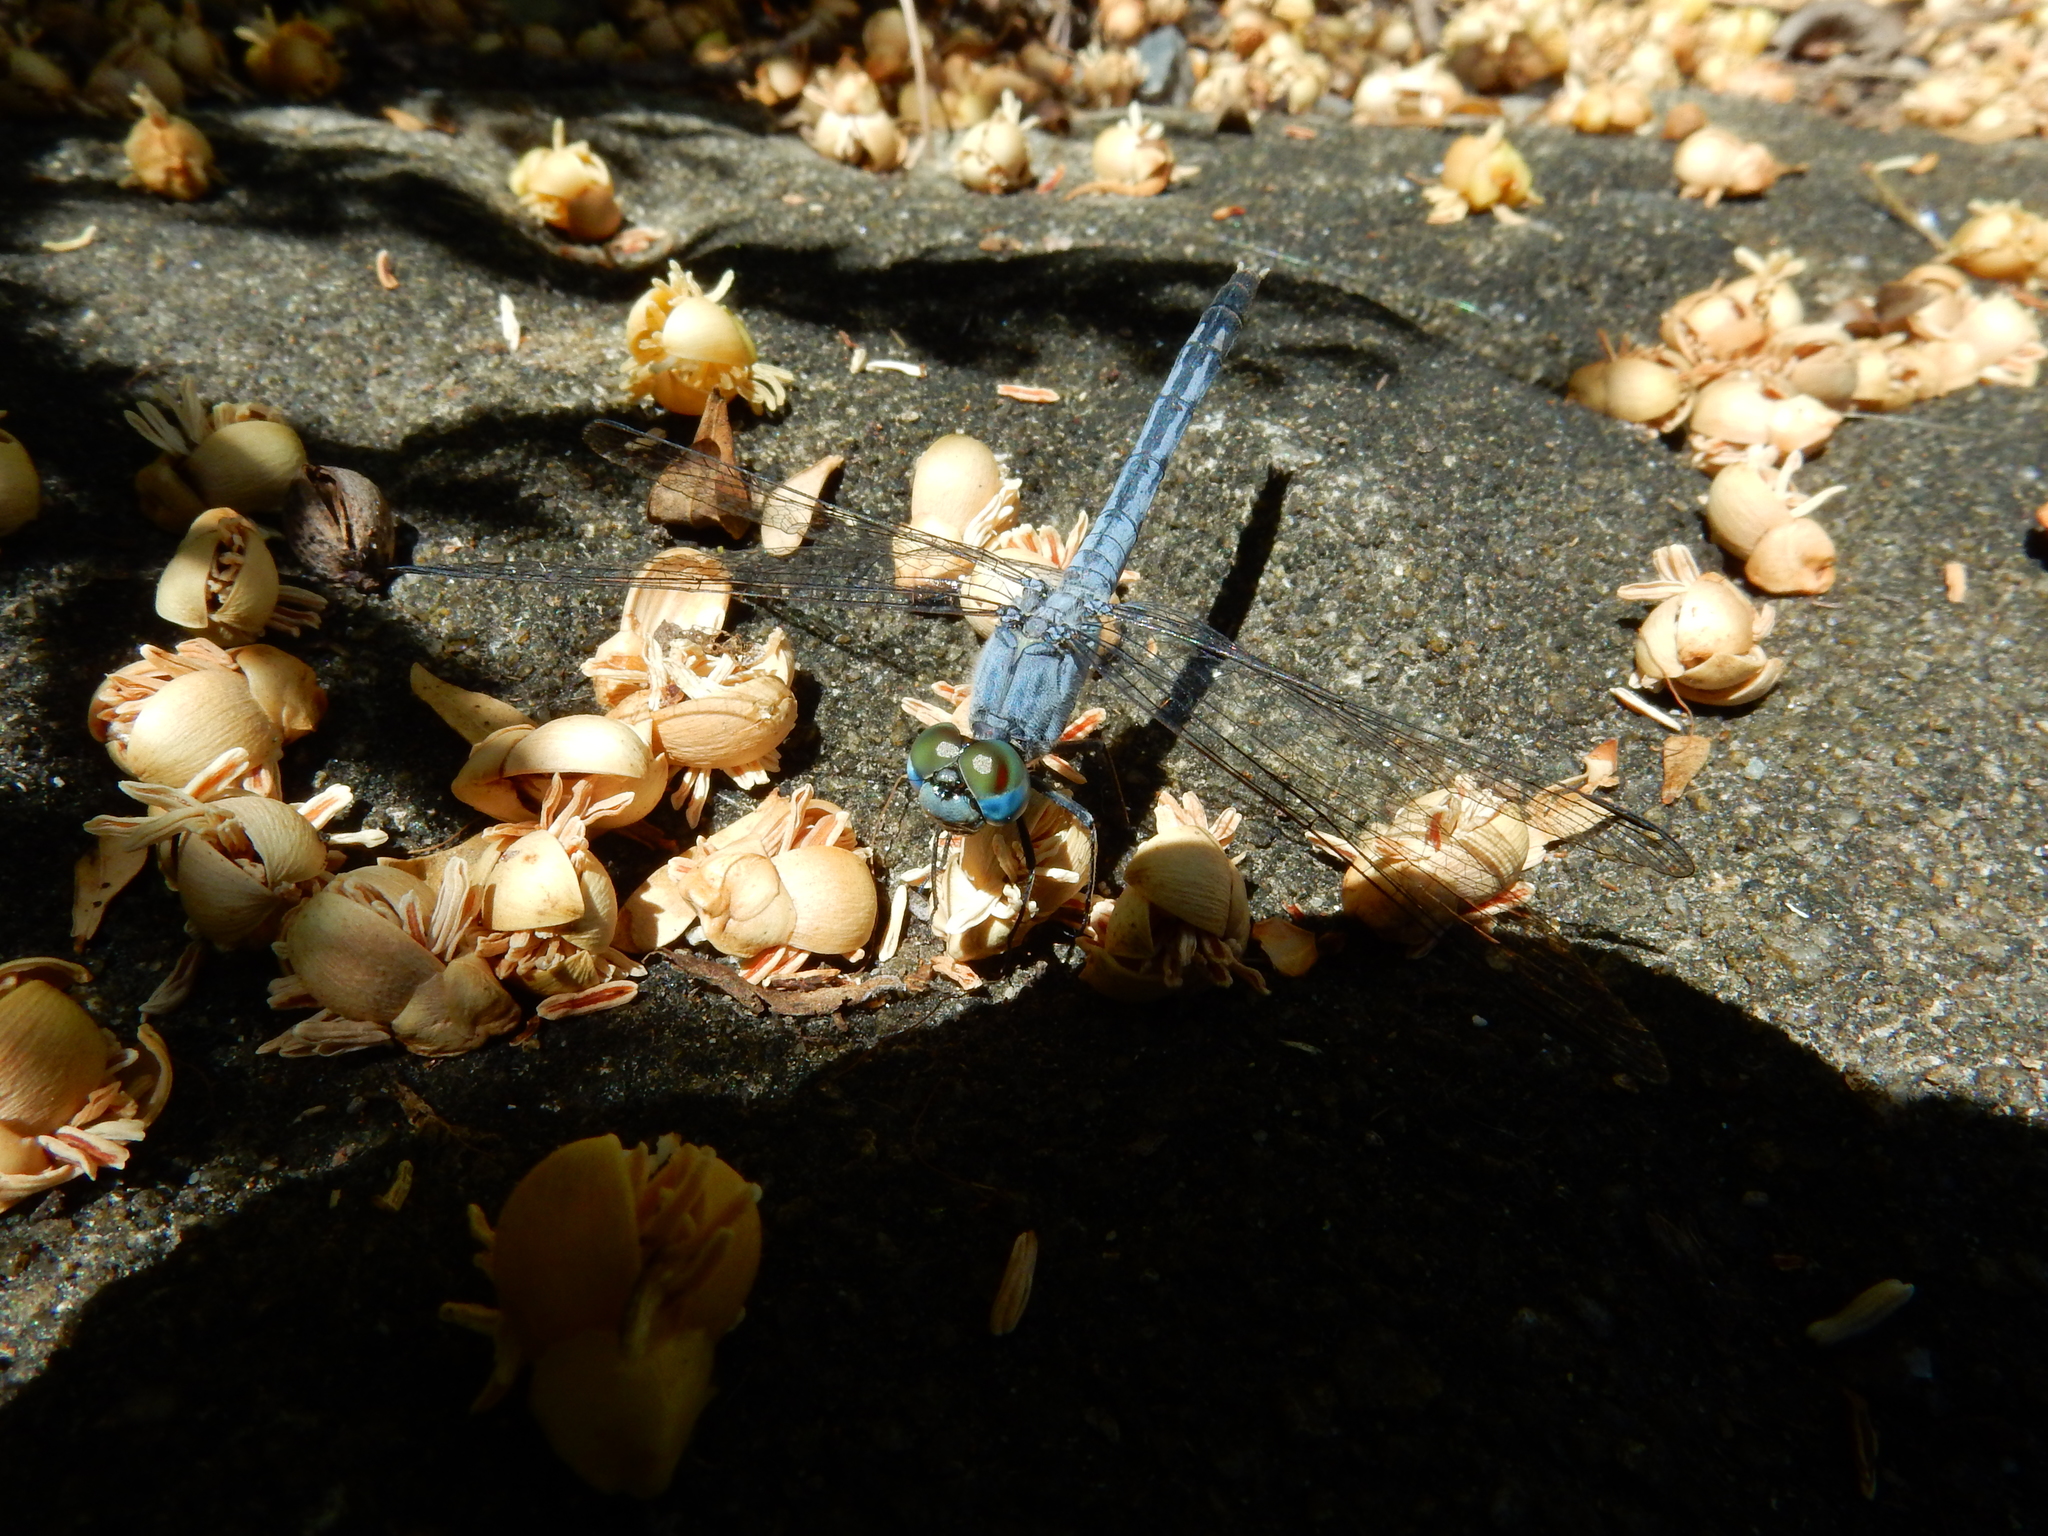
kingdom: Animalia
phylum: Arthropoda
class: Insecta
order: Odonata
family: Libellulidae
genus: Diplacodes
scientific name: Diplacodes trivialis
